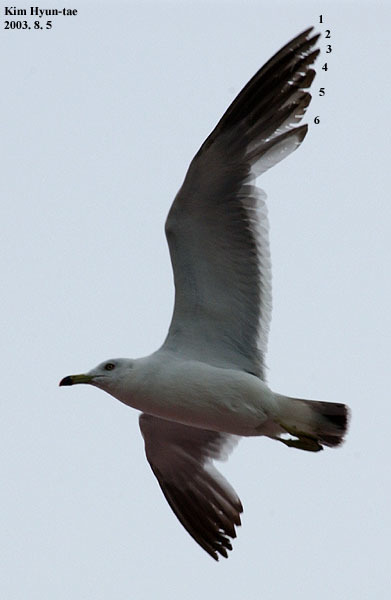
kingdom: Animalia
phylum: Chordata
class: Aves
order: Charadriiformes
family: Laridae
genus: Larus
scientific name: Larus crassirostris
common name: Black-tailed gull
